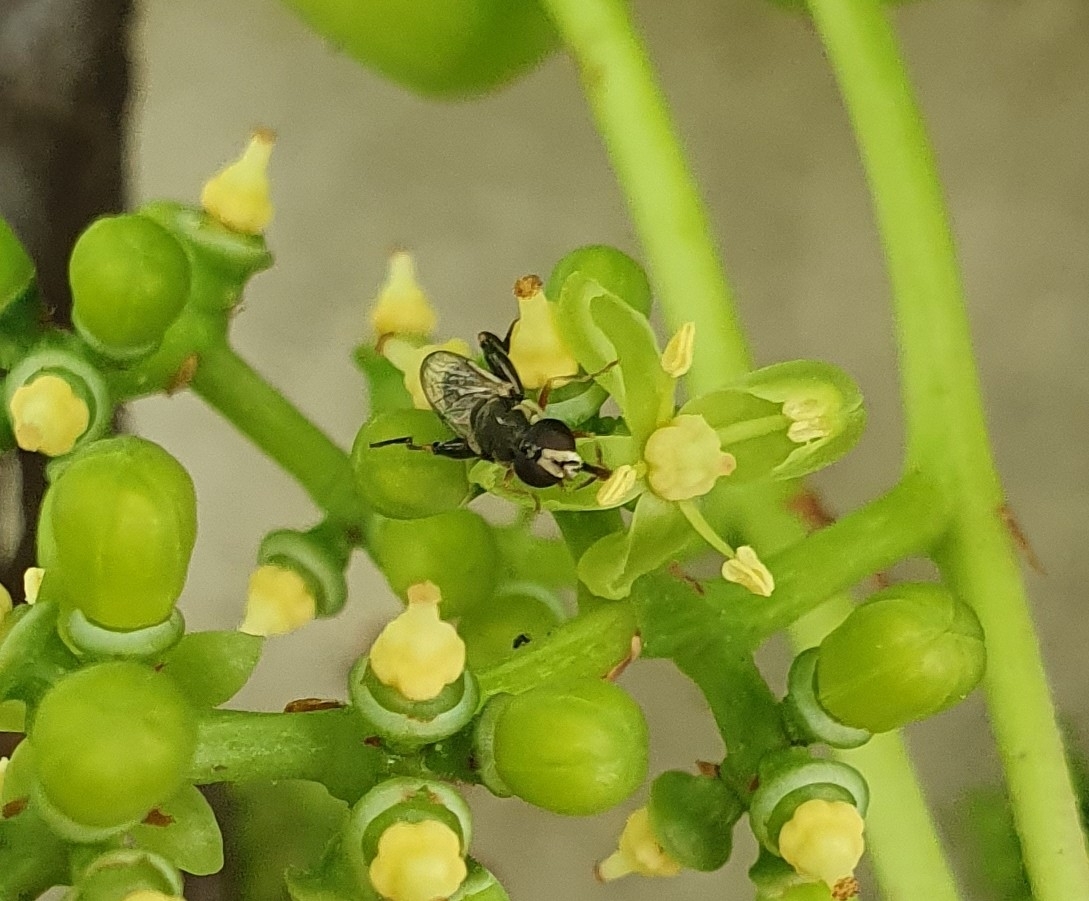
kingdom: Animalia
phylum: Arthropoda
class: Insecta
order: Diptera
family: Syrphidae
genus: Syritta
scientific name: Syritta pipiens
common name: Hover fly
